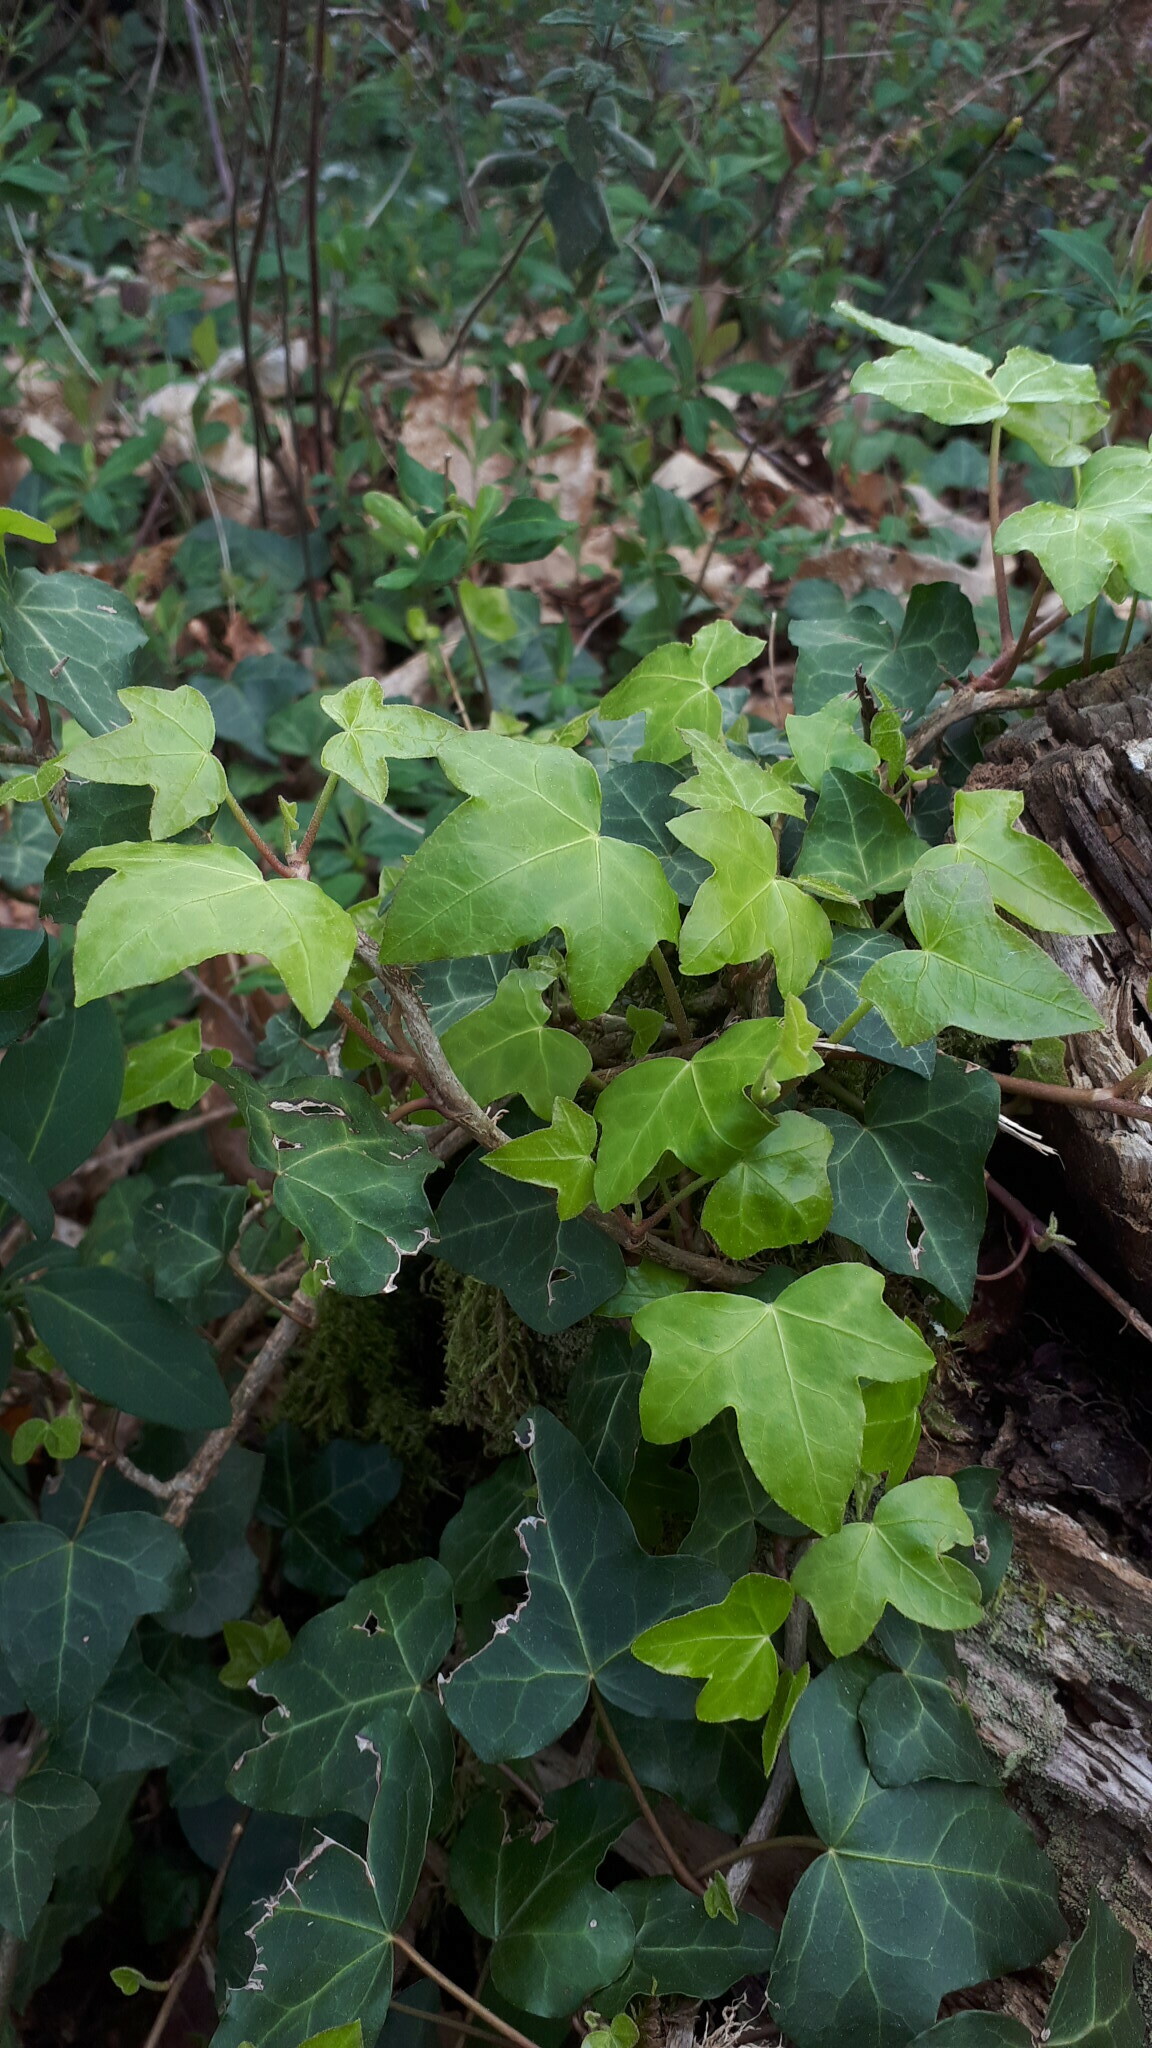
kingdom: Plantae
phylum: Tracheophyta
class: Magnoliopsida
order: Apiales
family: Araliaceae
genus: Hedera
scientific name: Hedera helix
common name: Ivy
